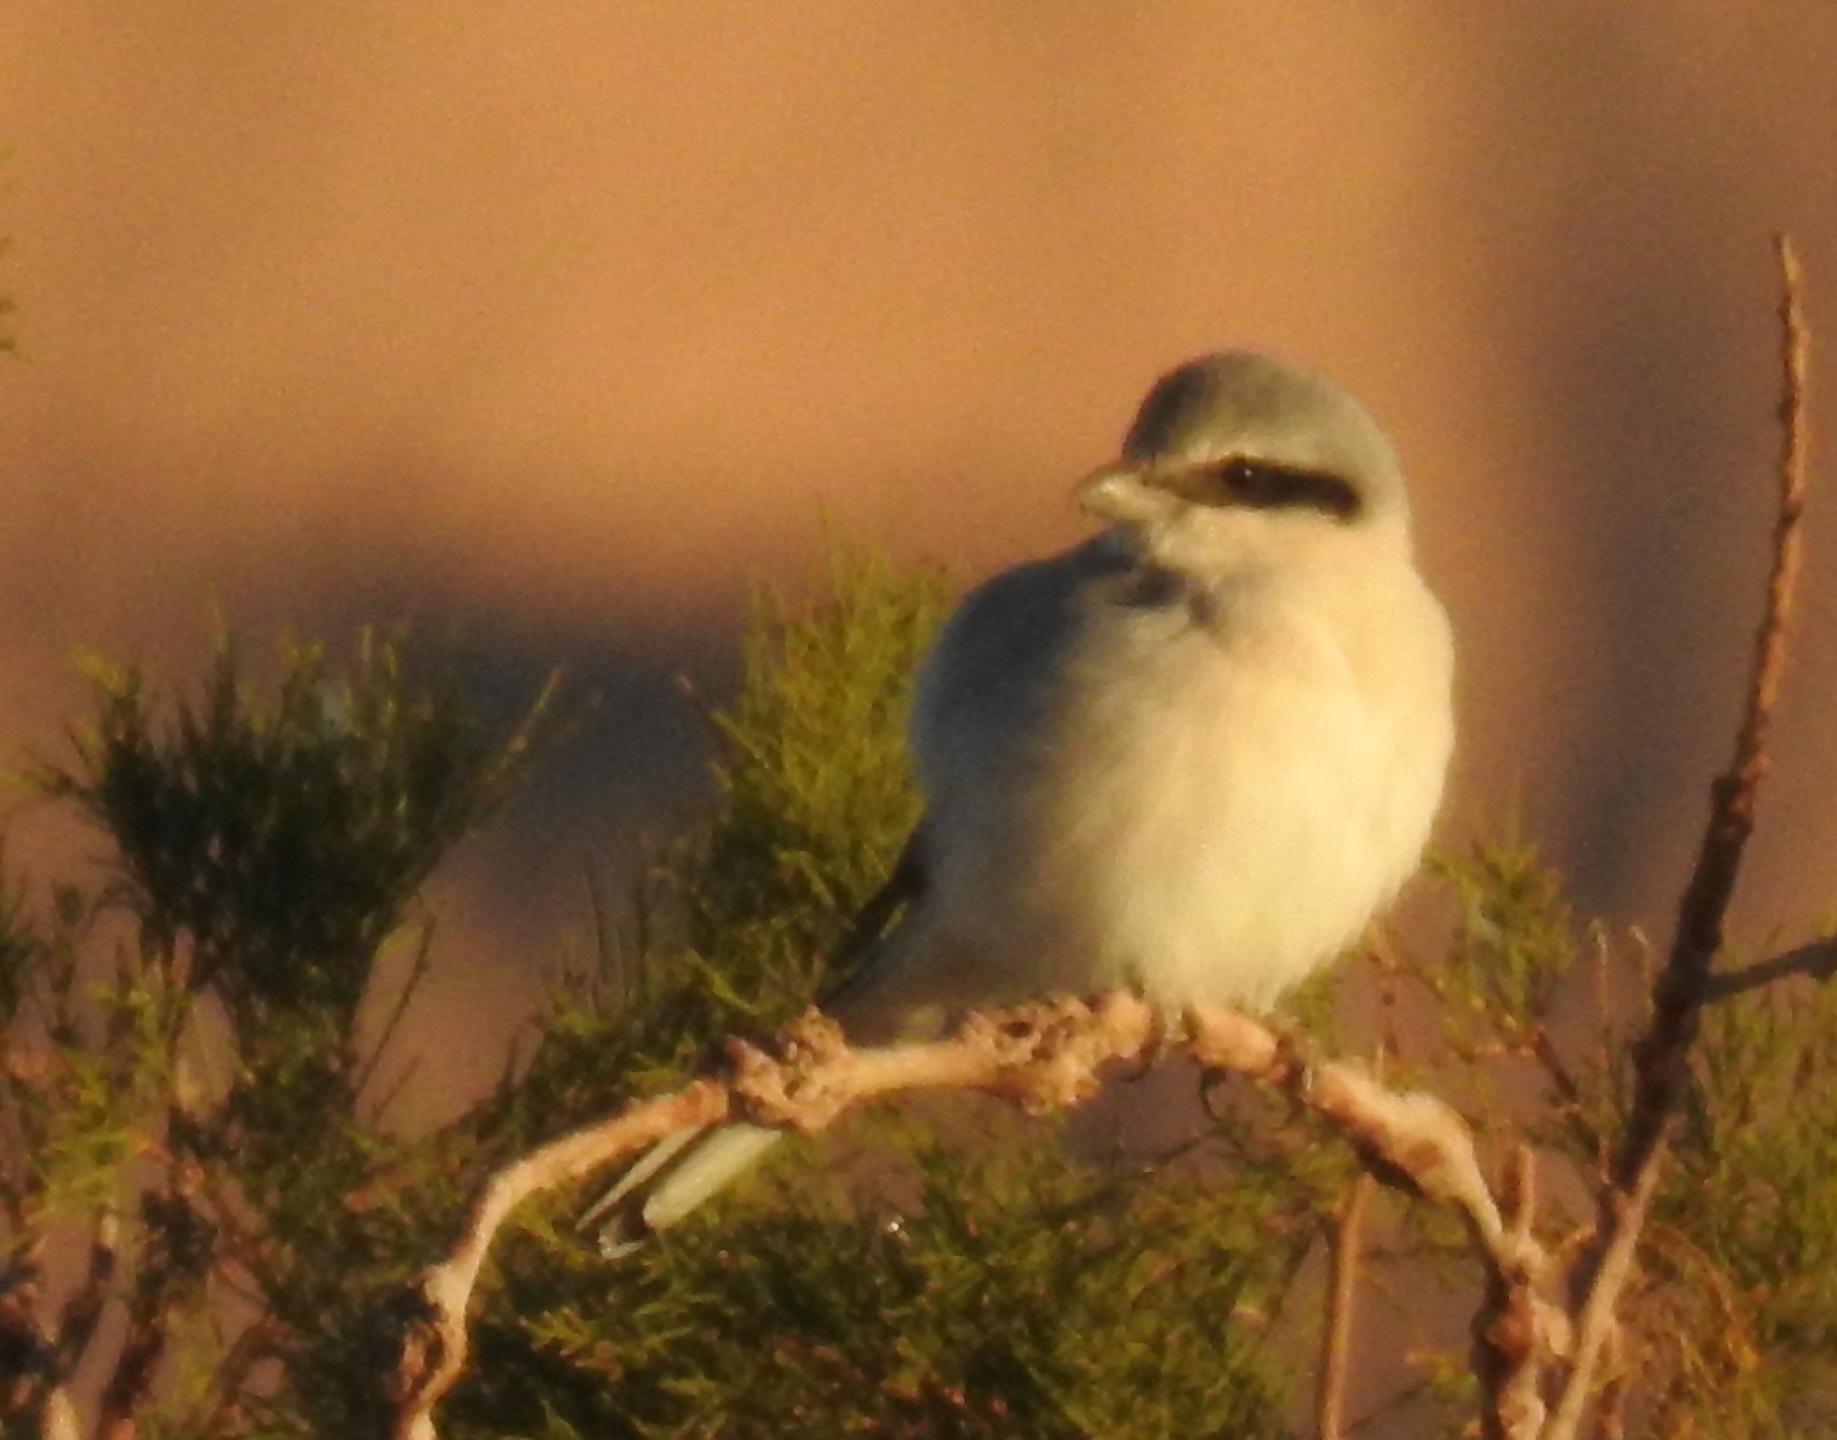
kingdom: Animalia
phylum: Chordata
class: Aves
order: Passeriformes
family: Laniidae
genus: Lanius
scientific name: Lanius excubitor
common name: Great grey shrike
